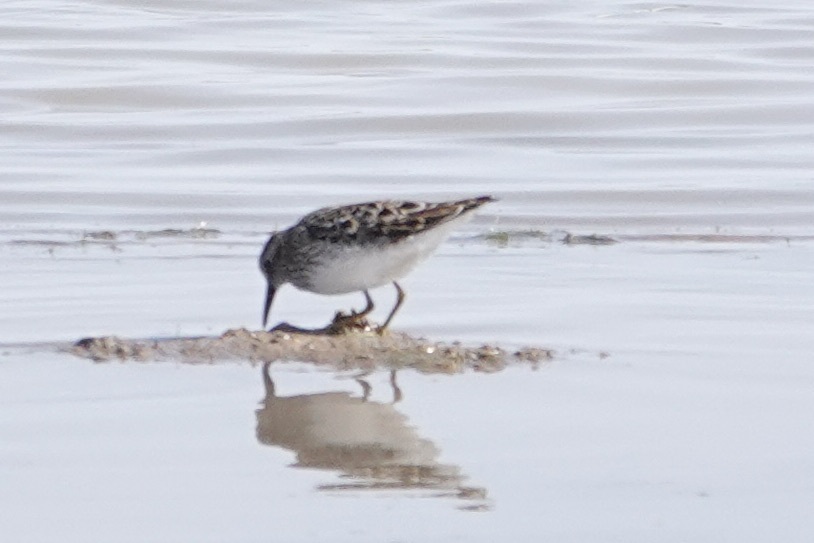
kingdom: Animalia
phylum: Chordata
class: Aves
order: Charadriiformes
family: Scolopacidae
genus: Calidris
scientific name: Calidris minutilla
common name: Least sandpiper
